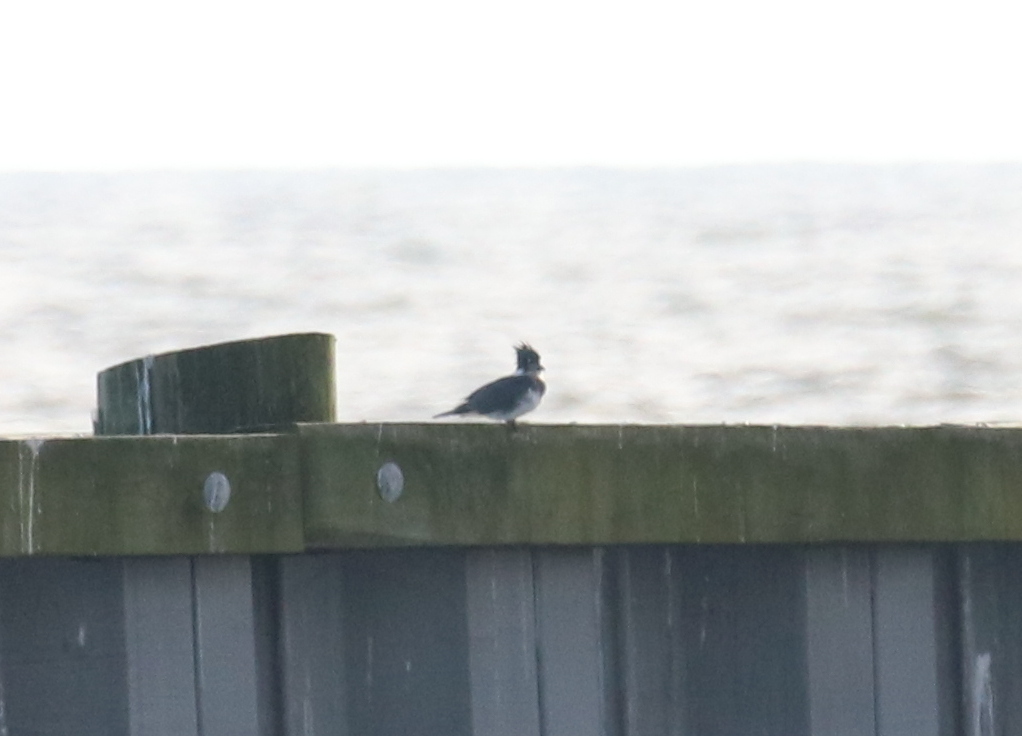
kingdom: Animalia
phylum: Chordata
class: Aves
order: Coraciiformes
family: Alcedinidae
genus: Megaceryle
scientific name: Megaceryle alcyon
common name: Belted kingfisher
